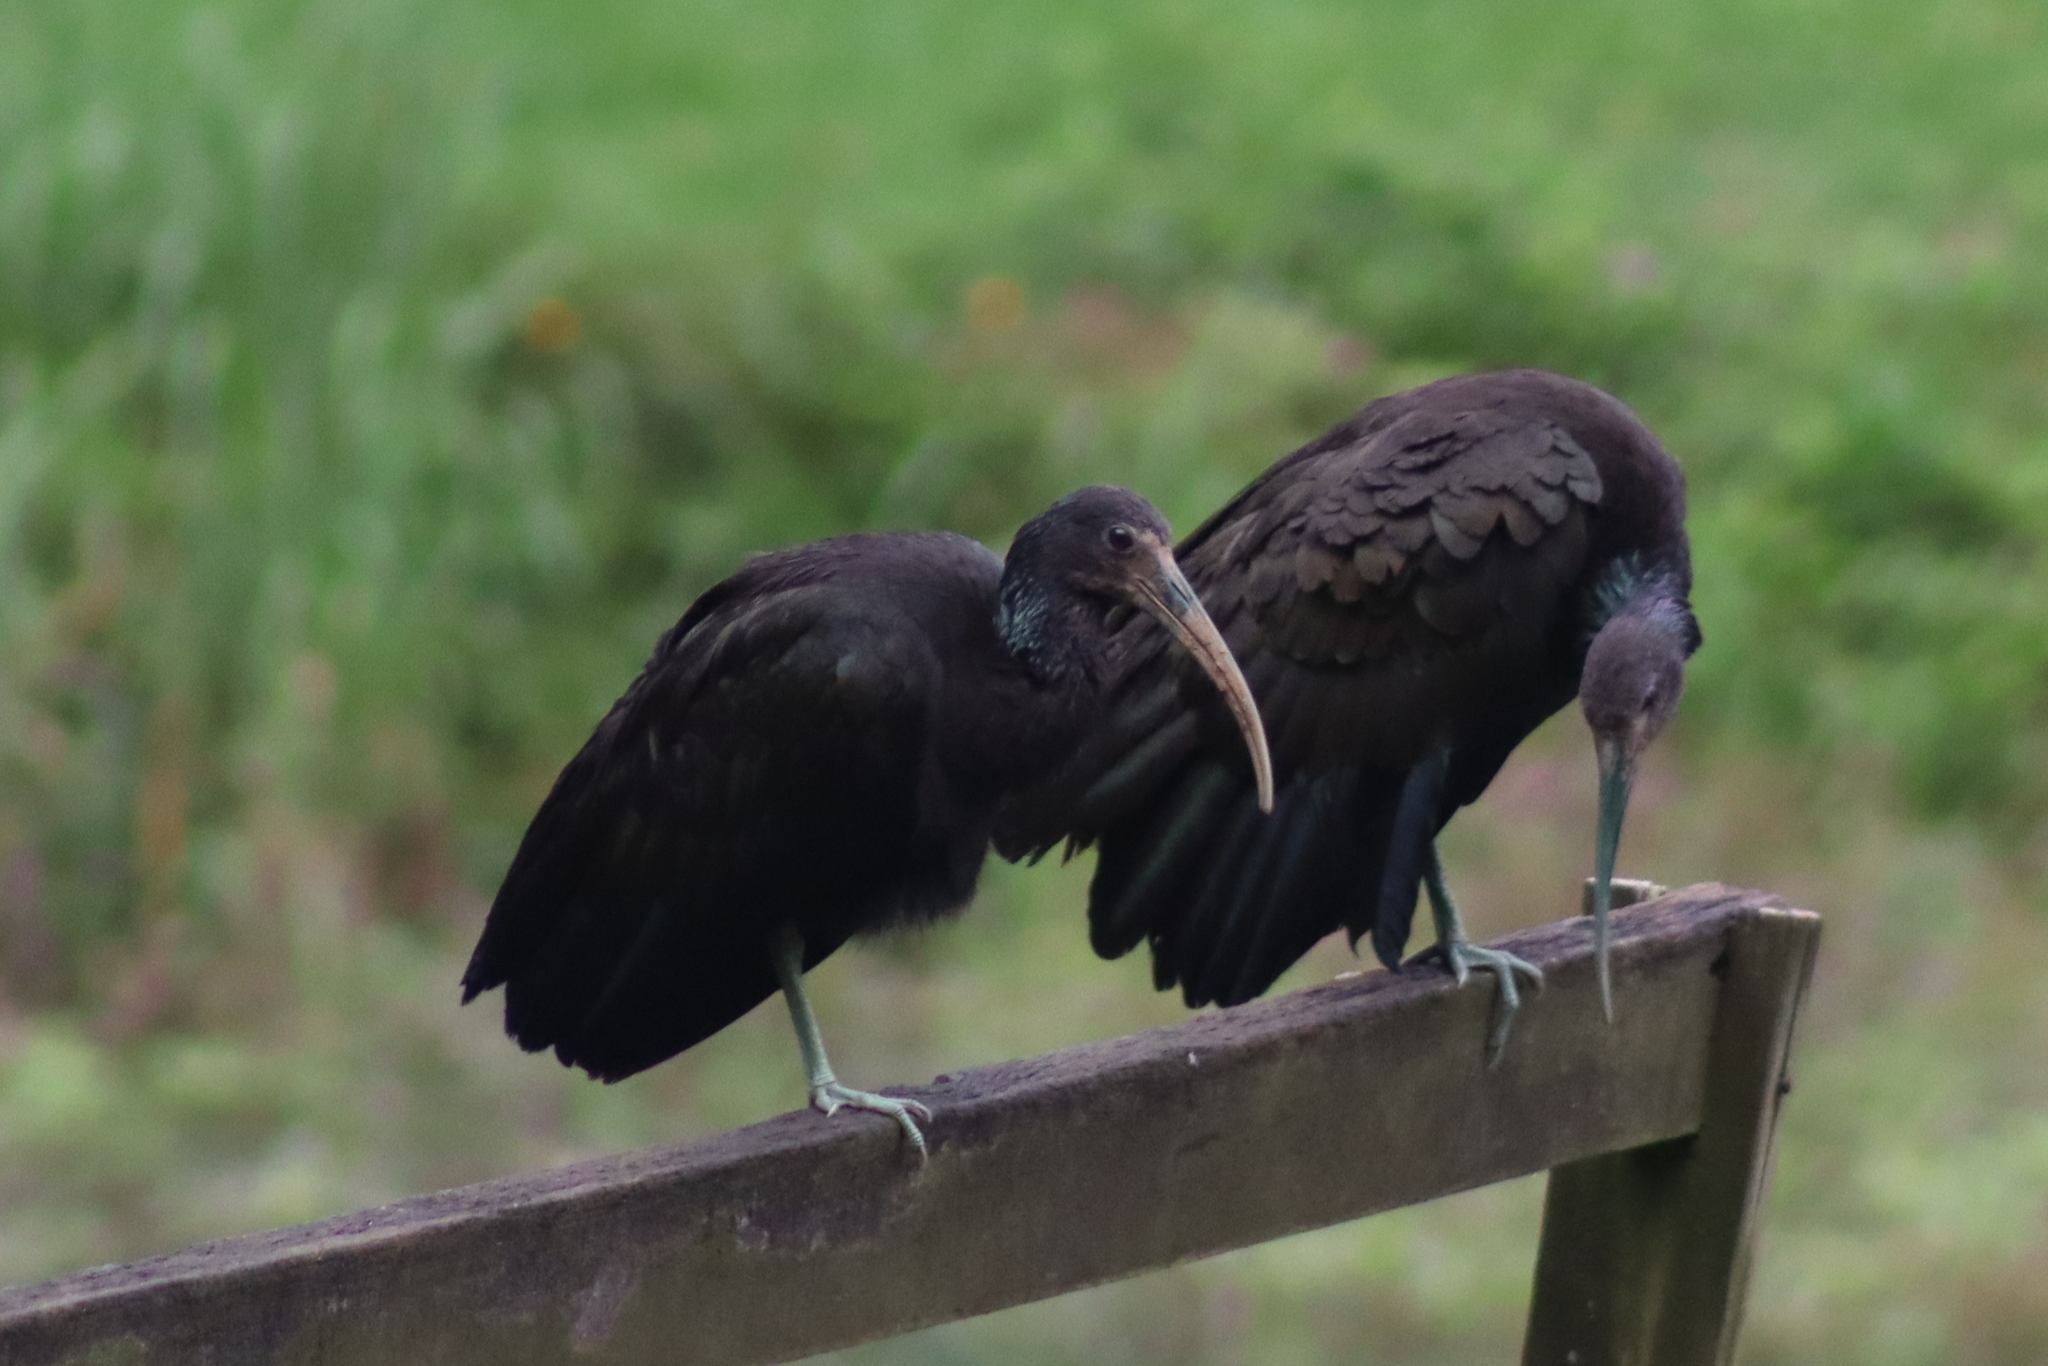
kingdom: Animalia
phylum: Chordata
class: Aves
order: Pelecaniformes
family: Threskiornithidae
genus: Mesembrinibis
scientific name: Mesembrinibis cayennensis
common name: Green ibis
